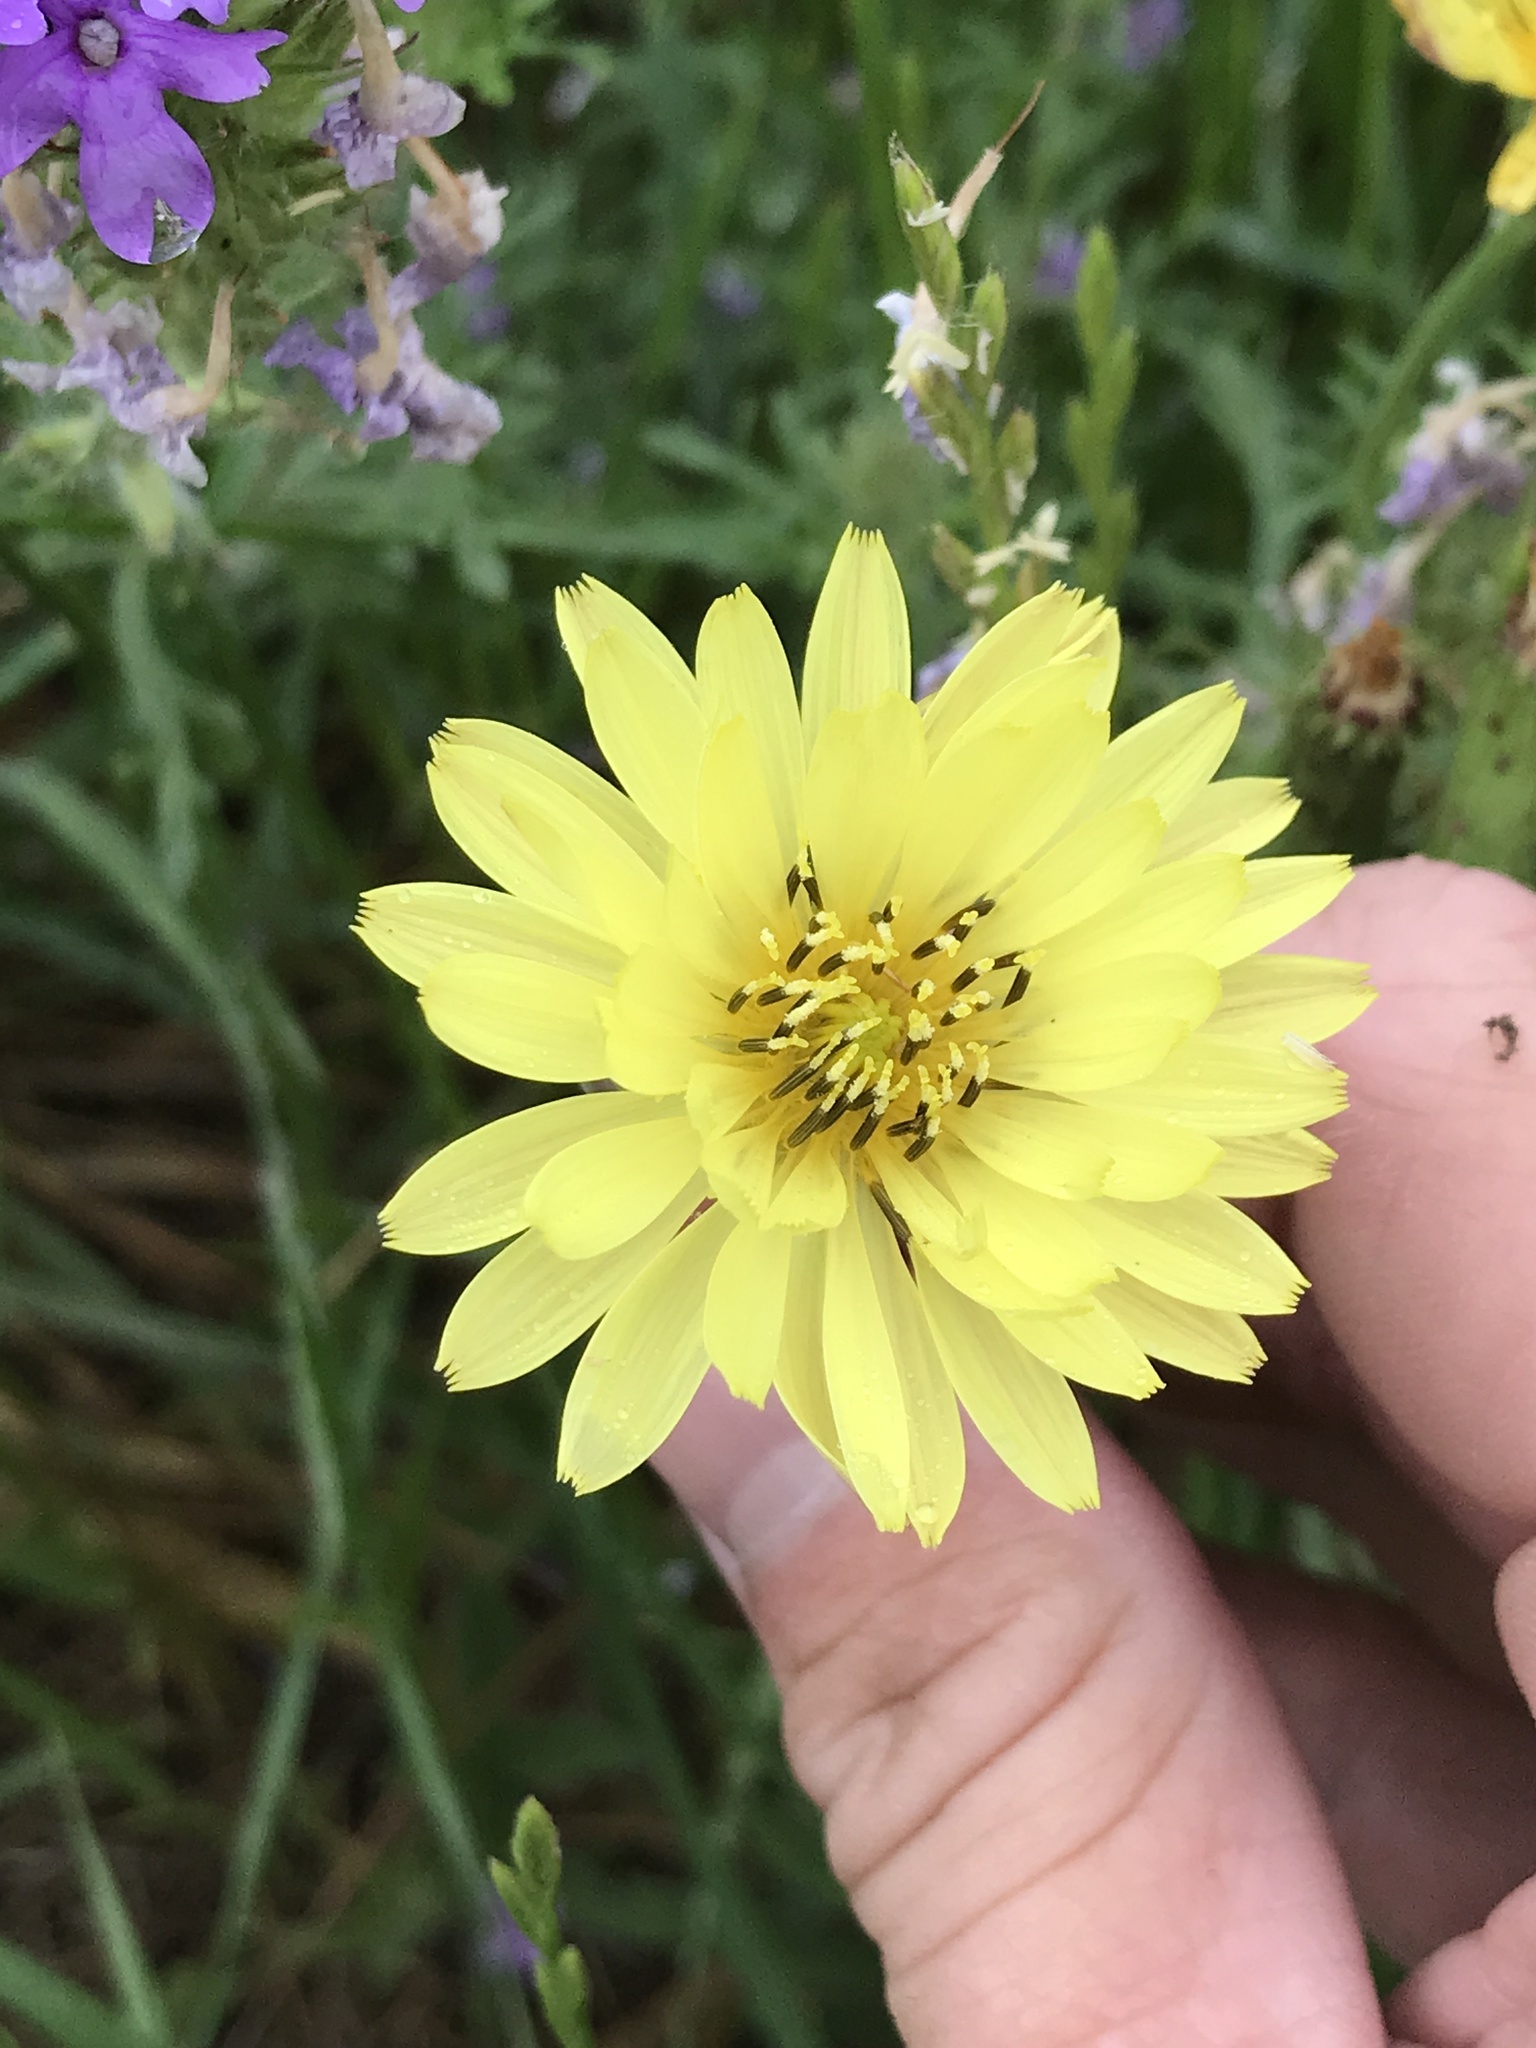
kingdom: Plantae
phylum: Tracheophyta
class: Magnoliopsida
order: Asterales
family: Asteraceae
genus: Pyrrhopappus
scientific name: Pyrrhopappus pauciflorus
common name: Texas false dandelion
